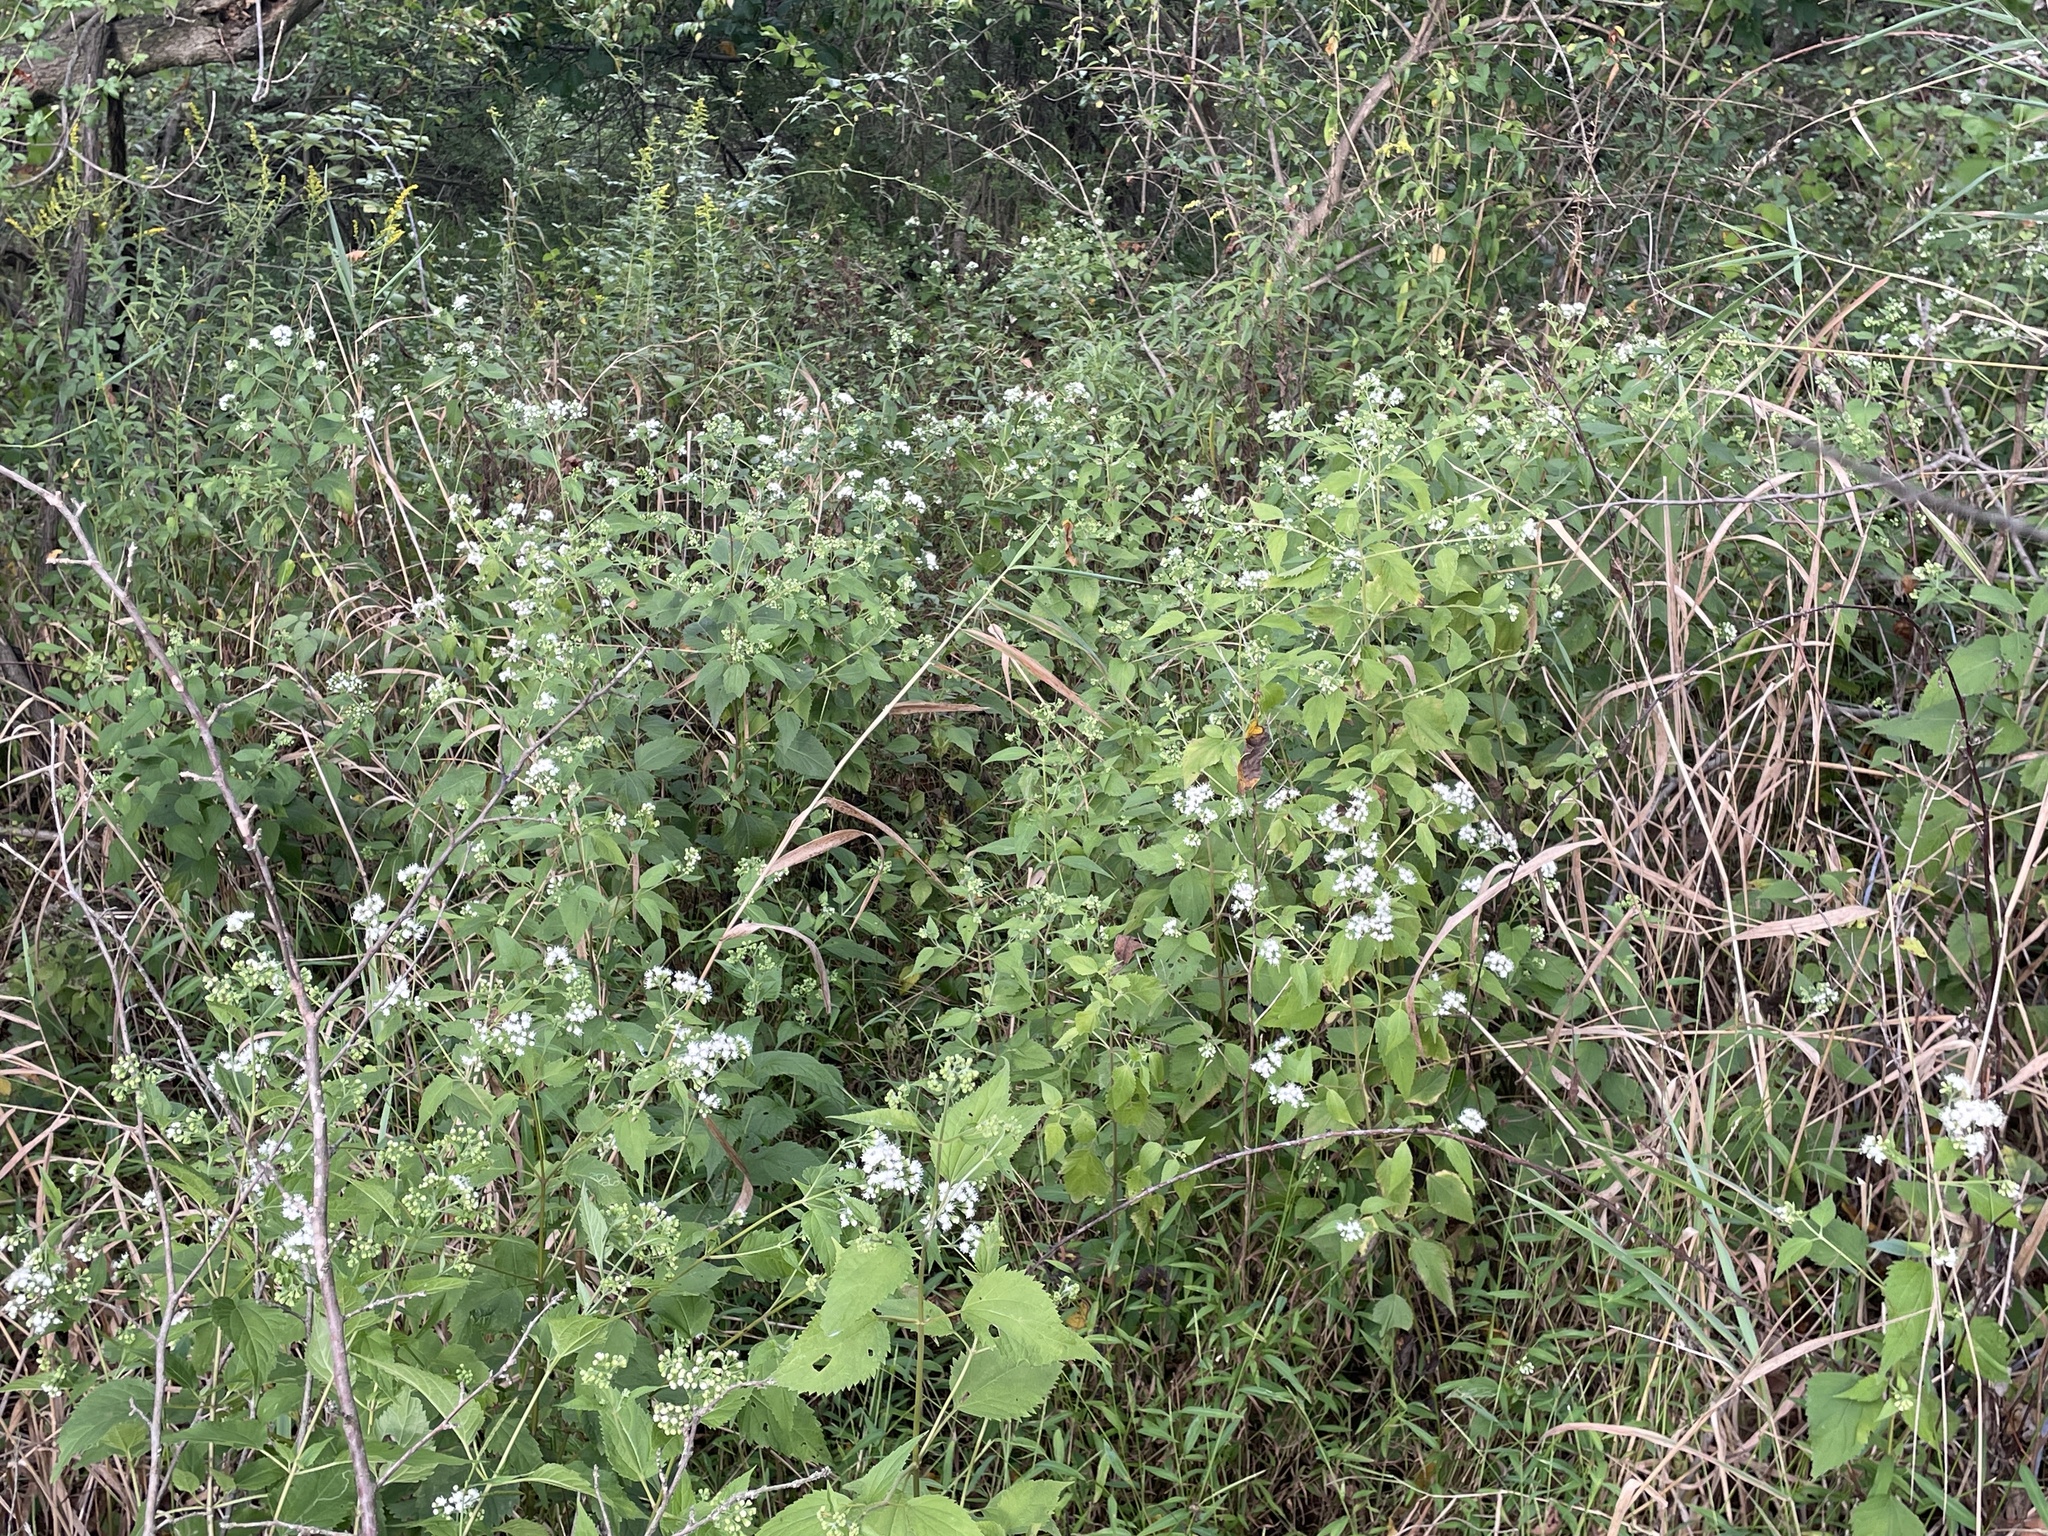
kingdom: Plantae
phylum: Tracheophyta
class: Magnoliopsida
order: Asterales
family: Asteraceae
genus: Ageratina
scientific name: Ageratina altissima
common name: White snakeroot
